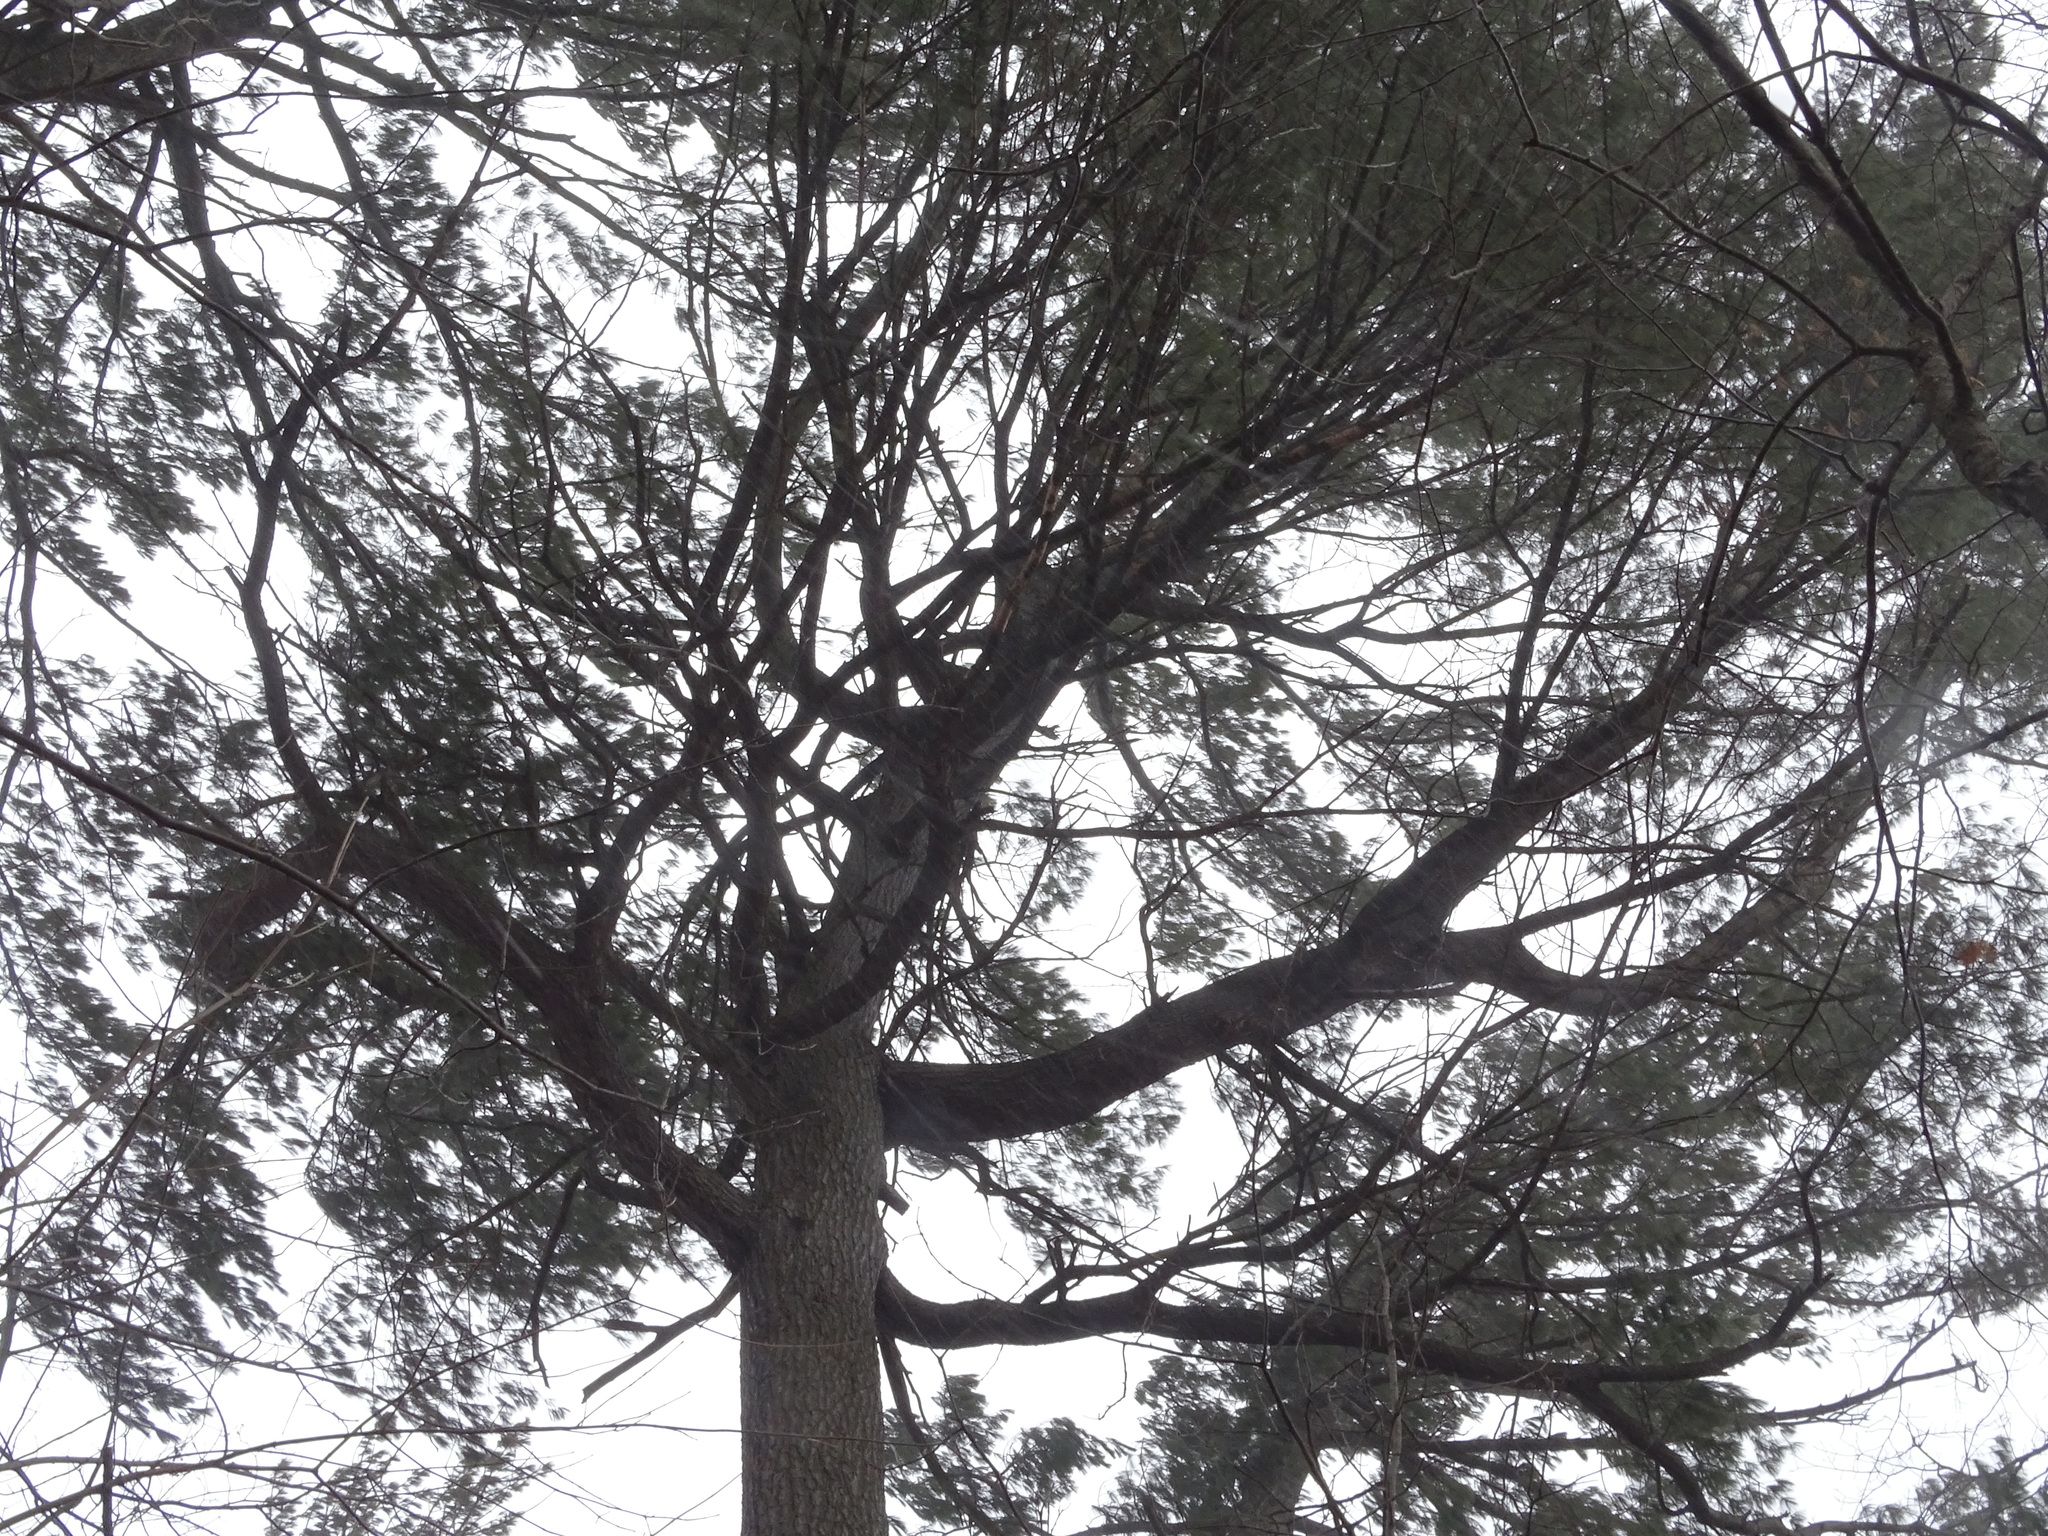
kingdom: Plantae
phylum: Tracheophyta
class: Pinopsida
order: Pinales
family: Pinaceae
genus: Pinus
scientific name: Pinus strobus
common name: Weymouth pine
